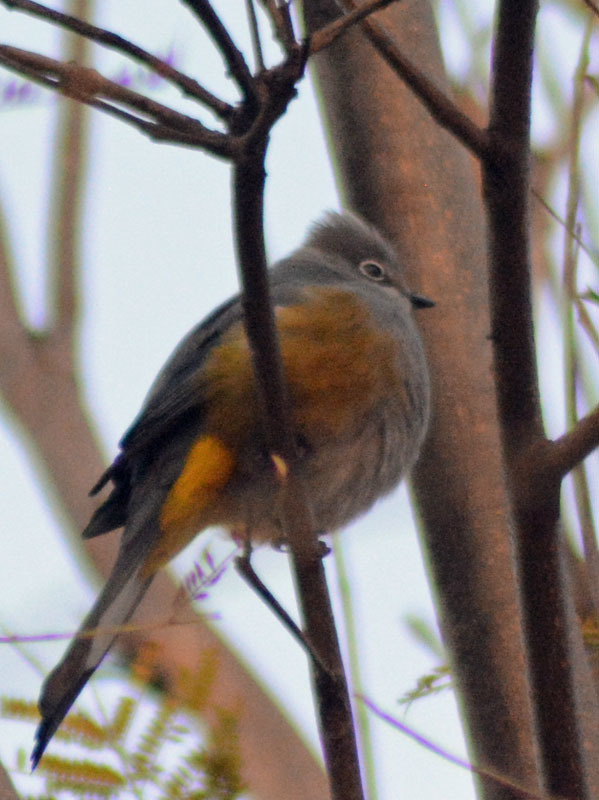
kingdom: Animalia
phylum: Chordata
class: Aves
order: Passeriformes
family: Ptilogonatidae
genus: Ptilogonys
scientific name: Ptilogonys cinereus
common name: Gray silky-flycatcher
